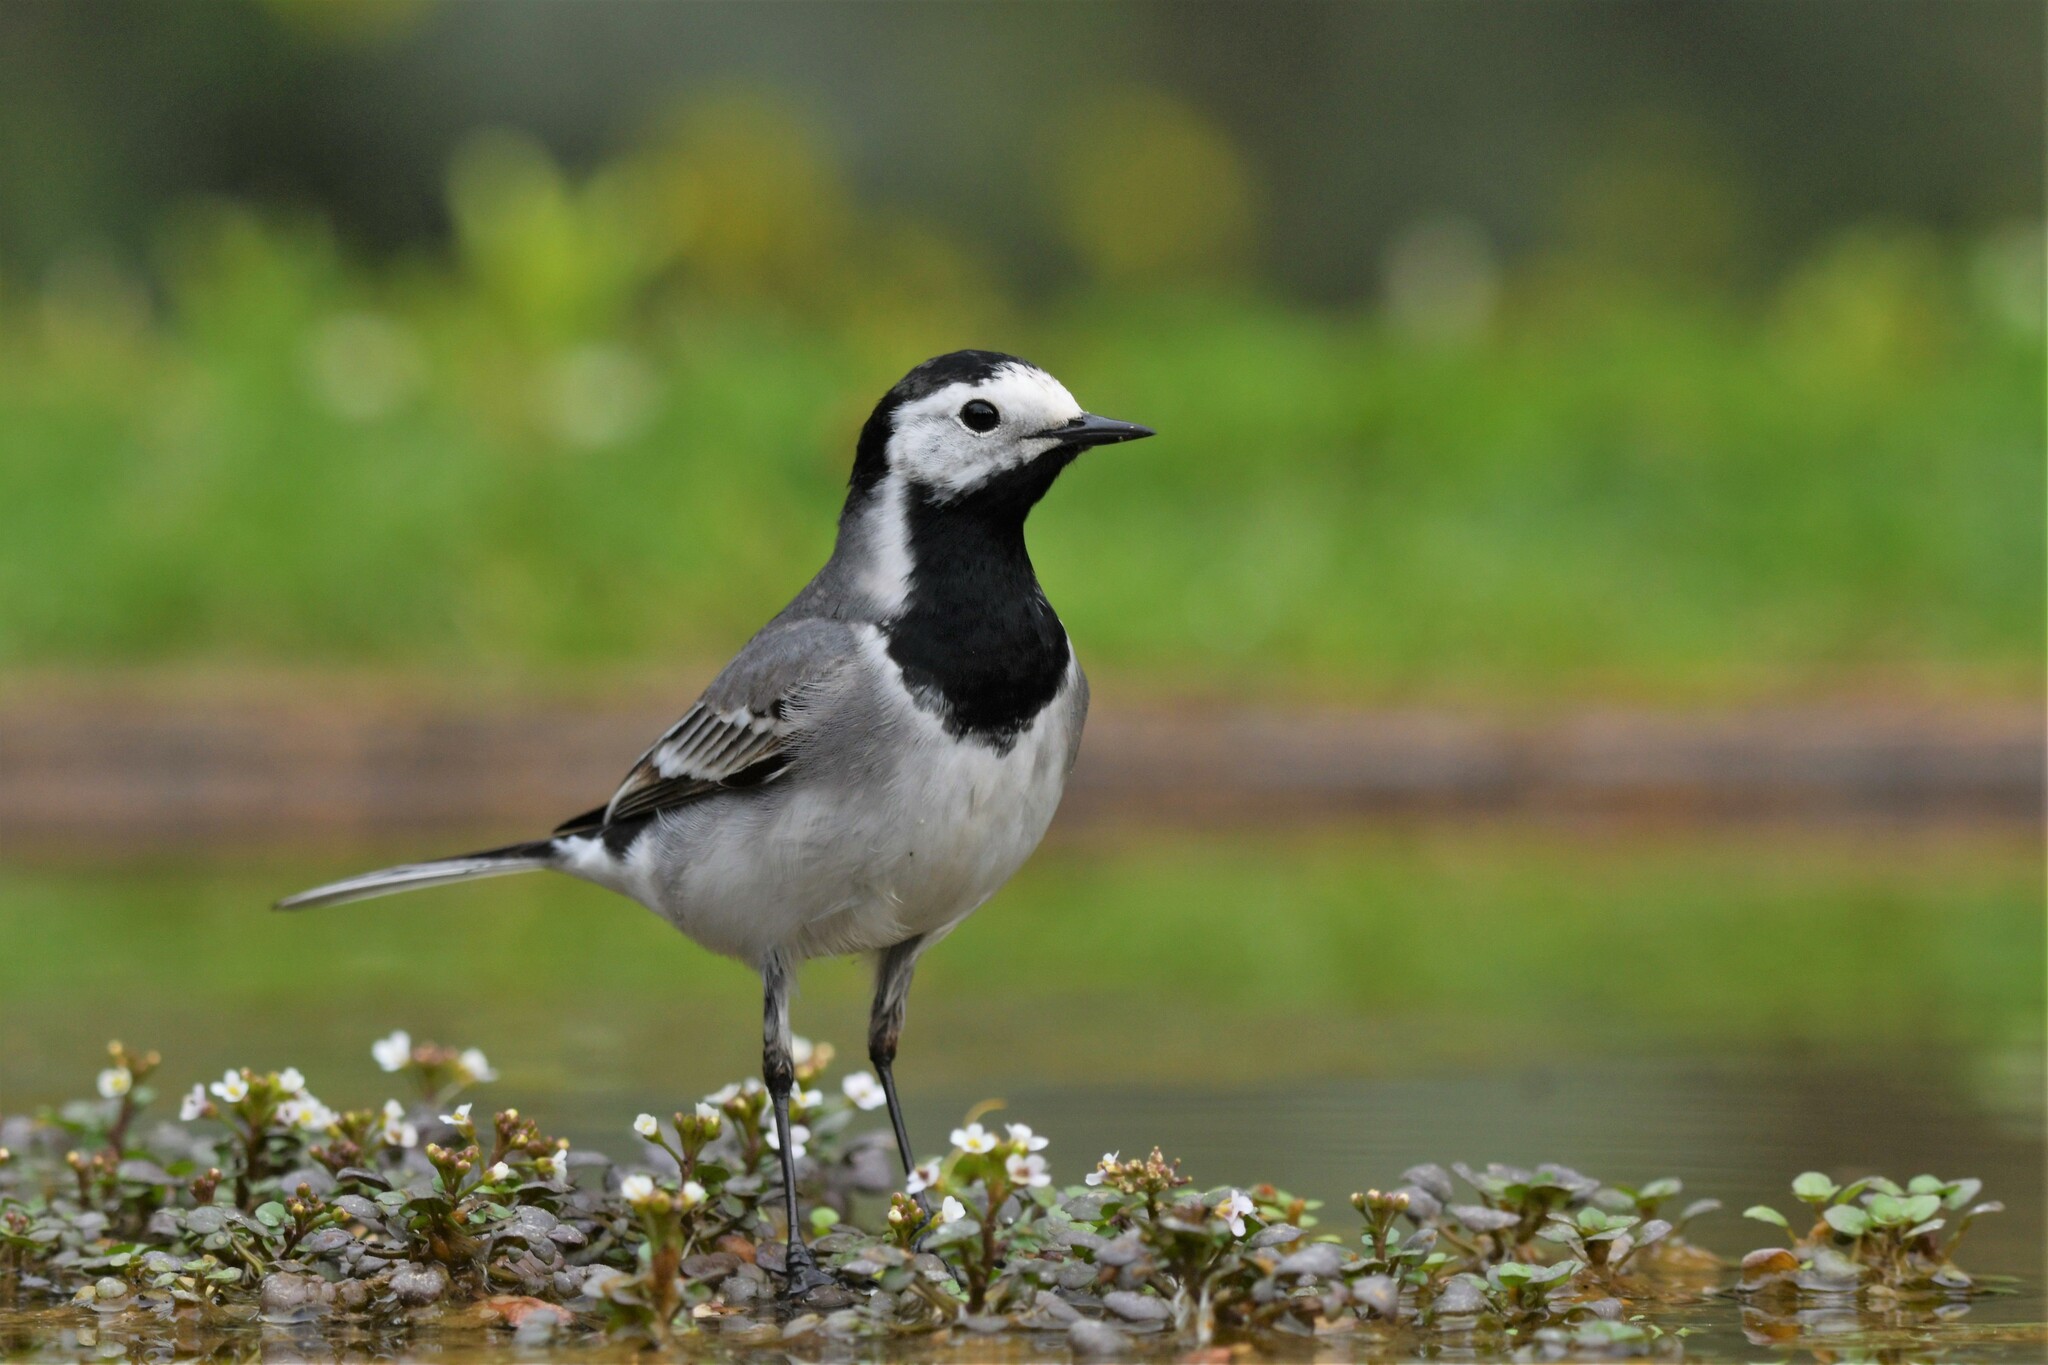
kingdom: Animalia
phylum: Chordata
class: Aves
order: Passeriformes
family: Motacillidae
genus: Motacilla
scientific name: Motacilla alba
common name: White wagtail
